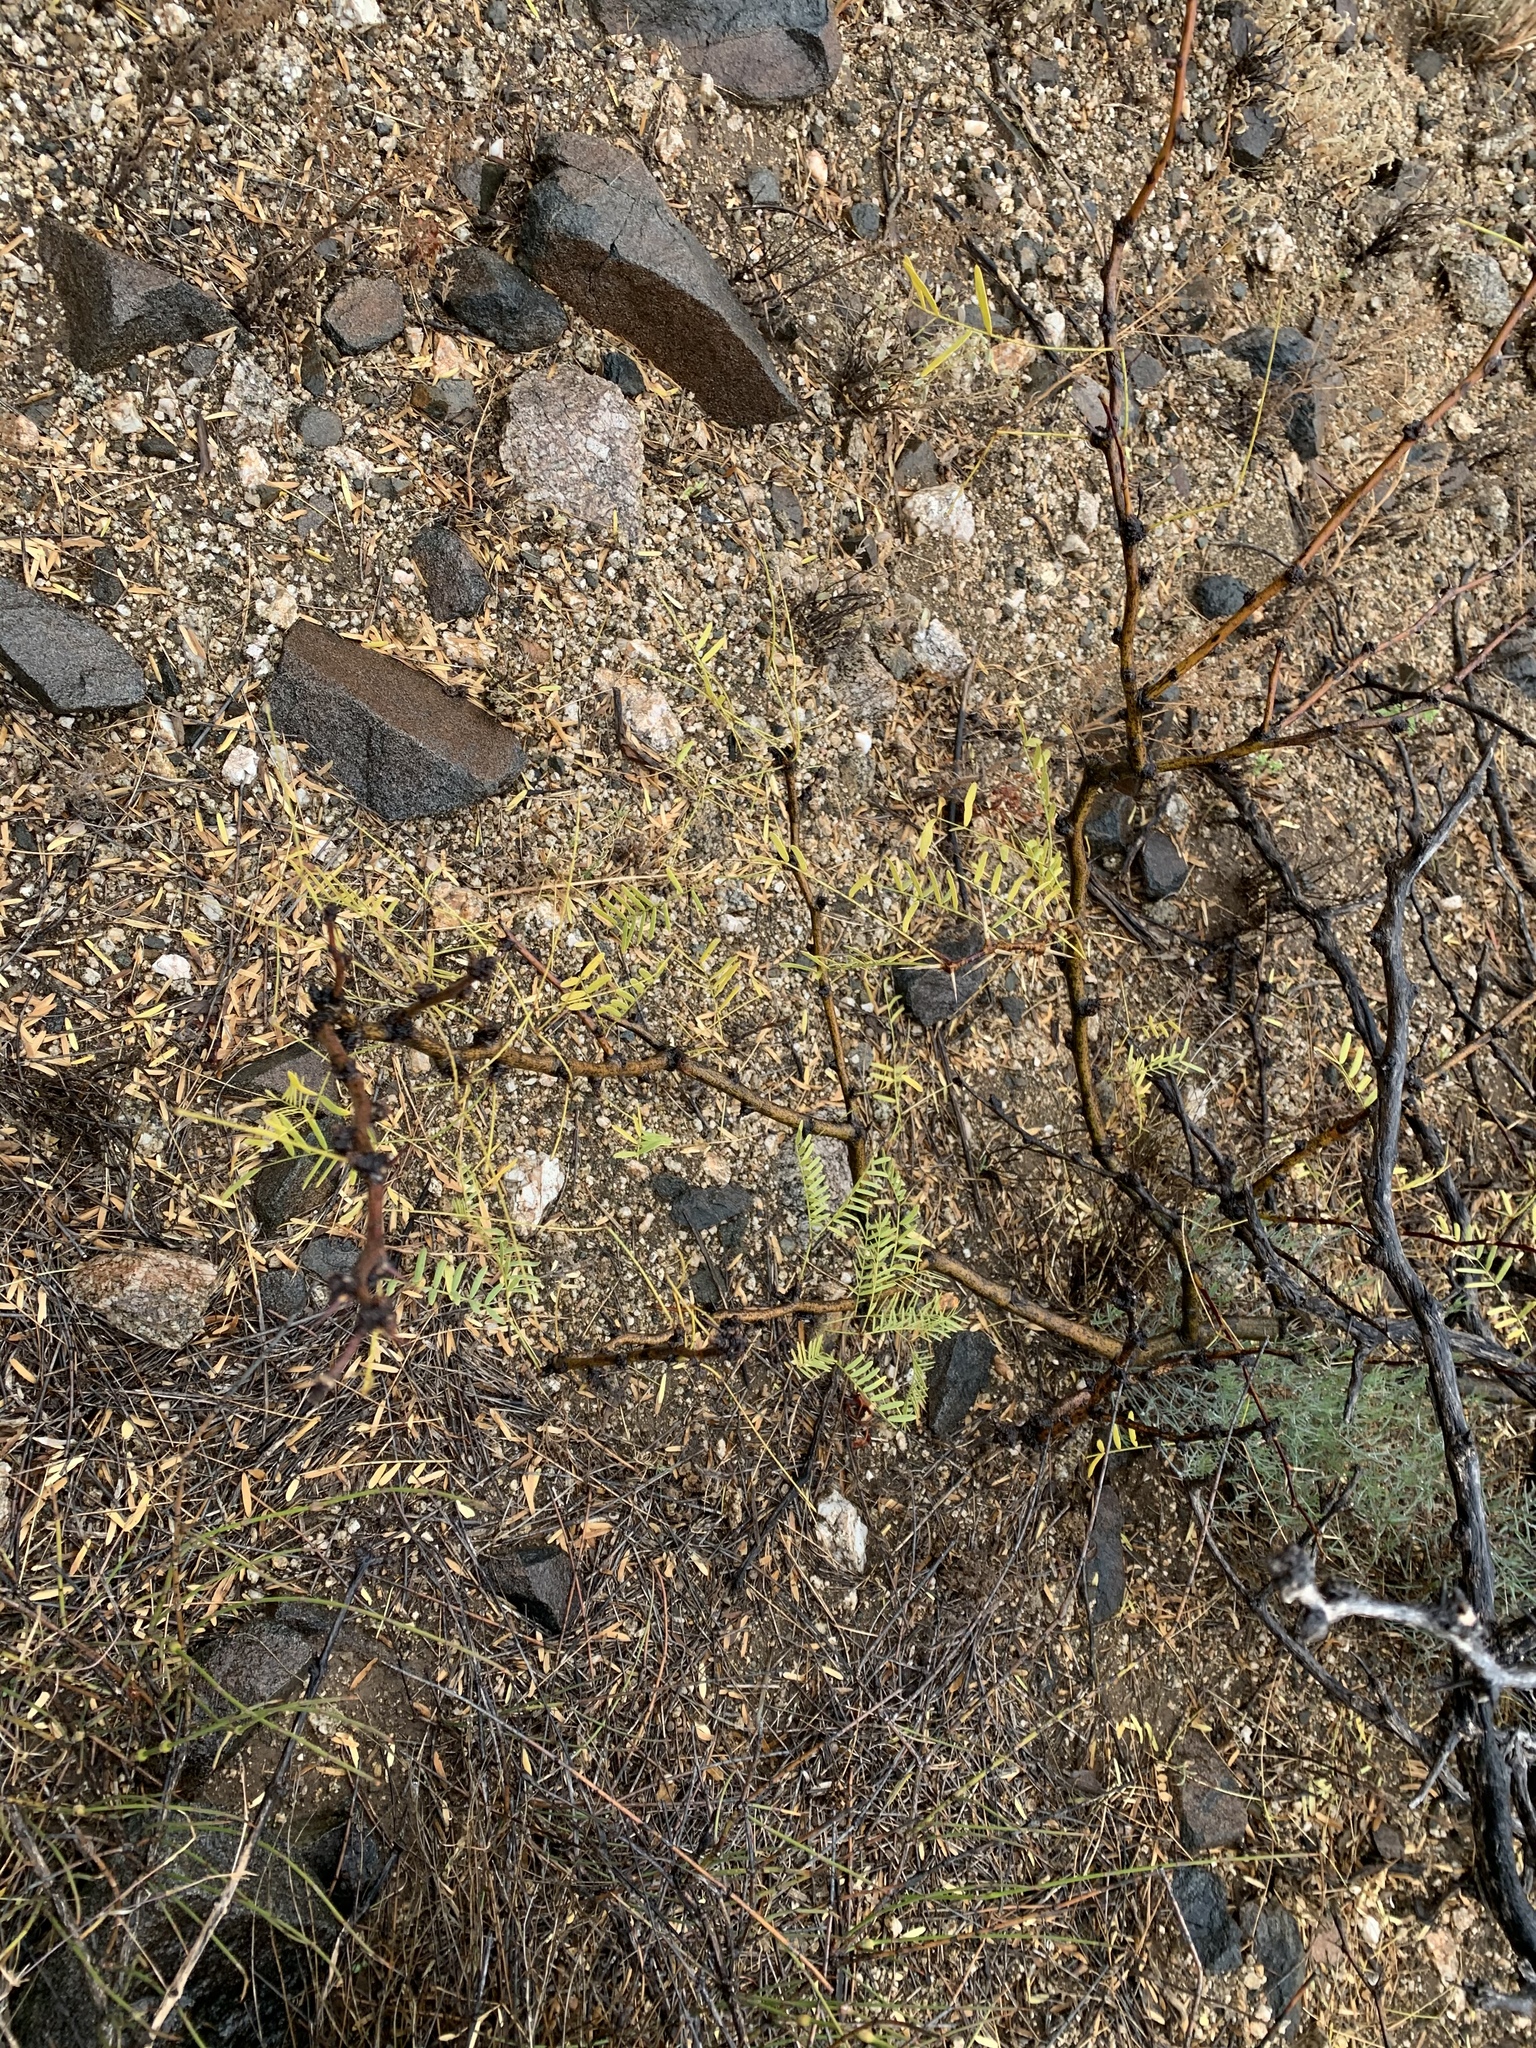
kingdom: Plantae
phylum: Tracheophyta
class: Magnoliopsida
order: Fabales
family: Fabaceae
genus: Prosopis
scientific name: Prosopis glandulosa
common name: Honey mesquite
